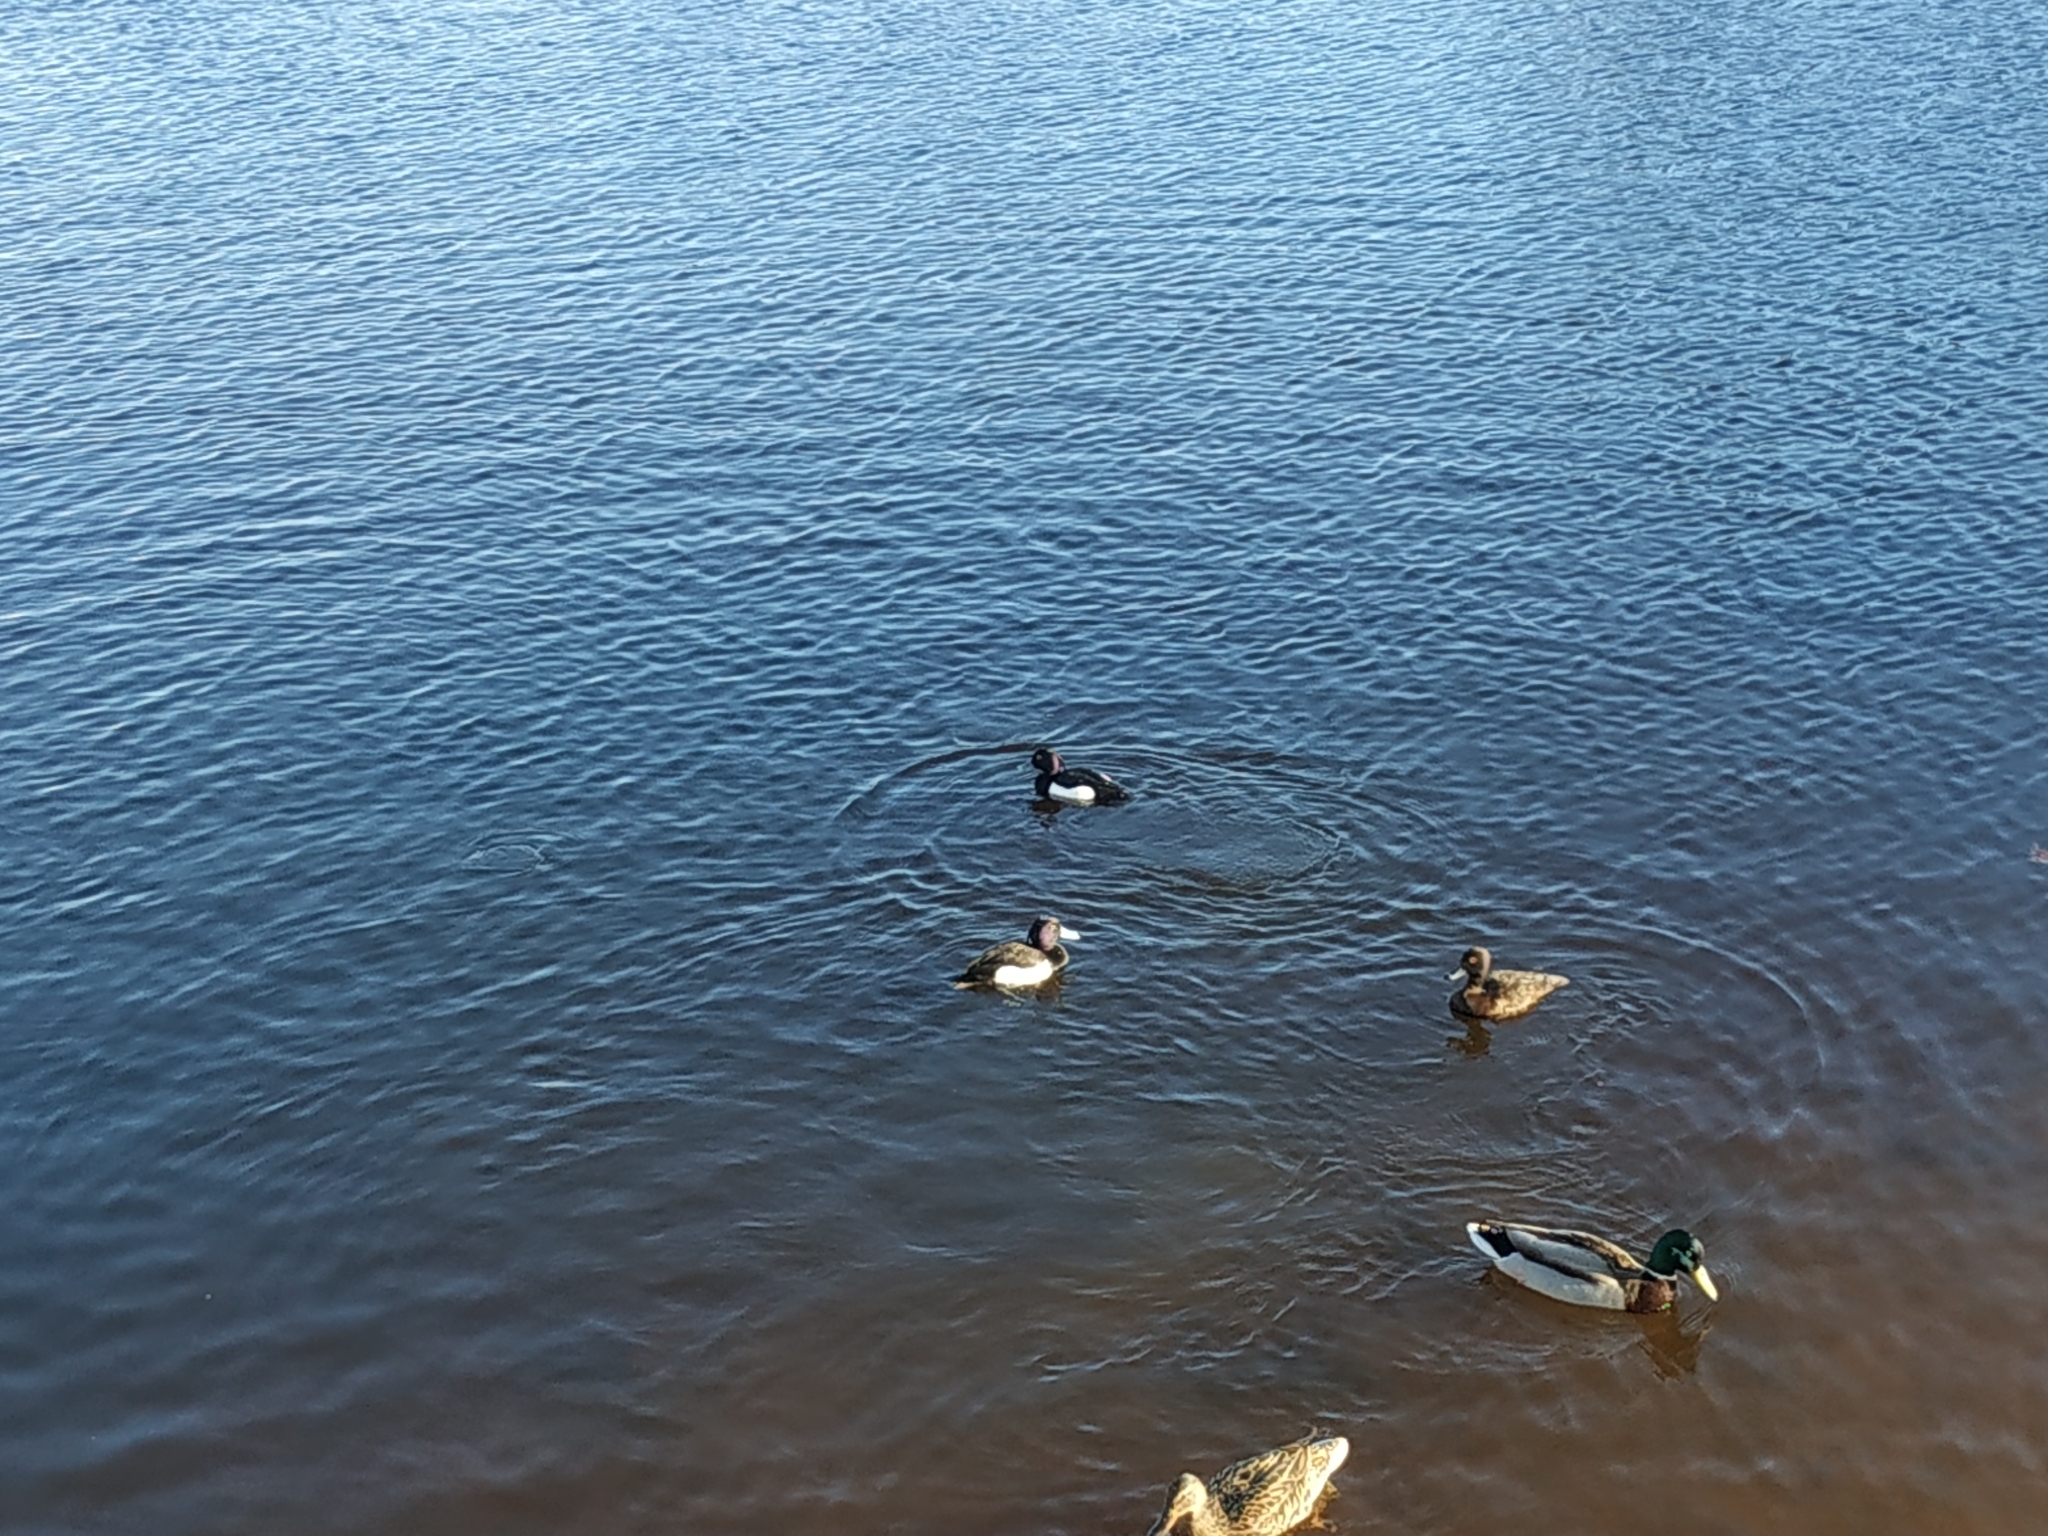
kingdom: Animalia
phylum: Chordata
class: Aves
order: Anseriformes
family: Anatidae
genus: Anas
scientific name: Anas platyrhynchos
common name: Mallard
